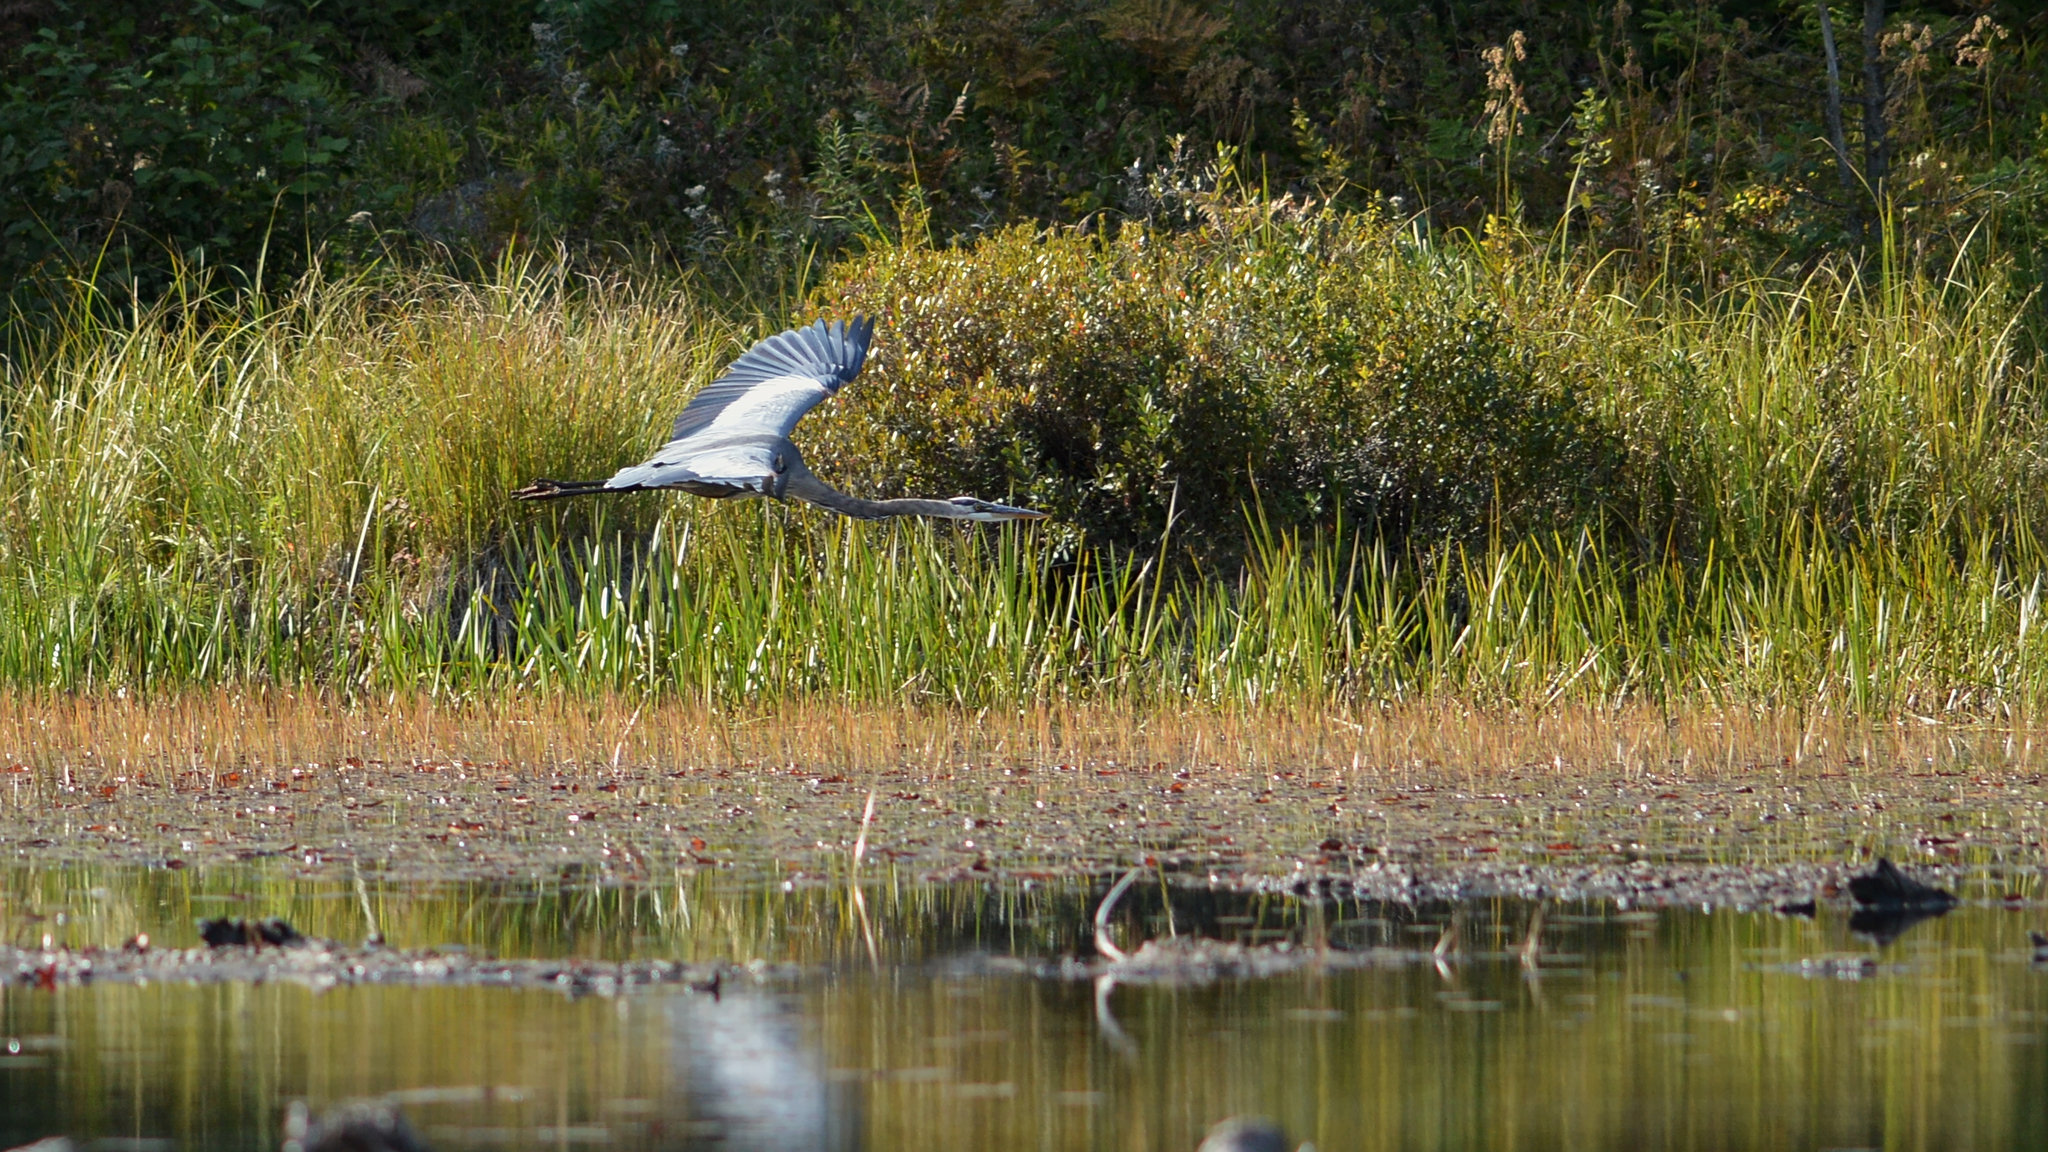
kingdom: Animalia
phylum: Chordata
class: Aves
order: Pelecaniformes
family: Ardeidae
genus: Ardea
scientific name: Ardea herodias
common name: Great blue heron
